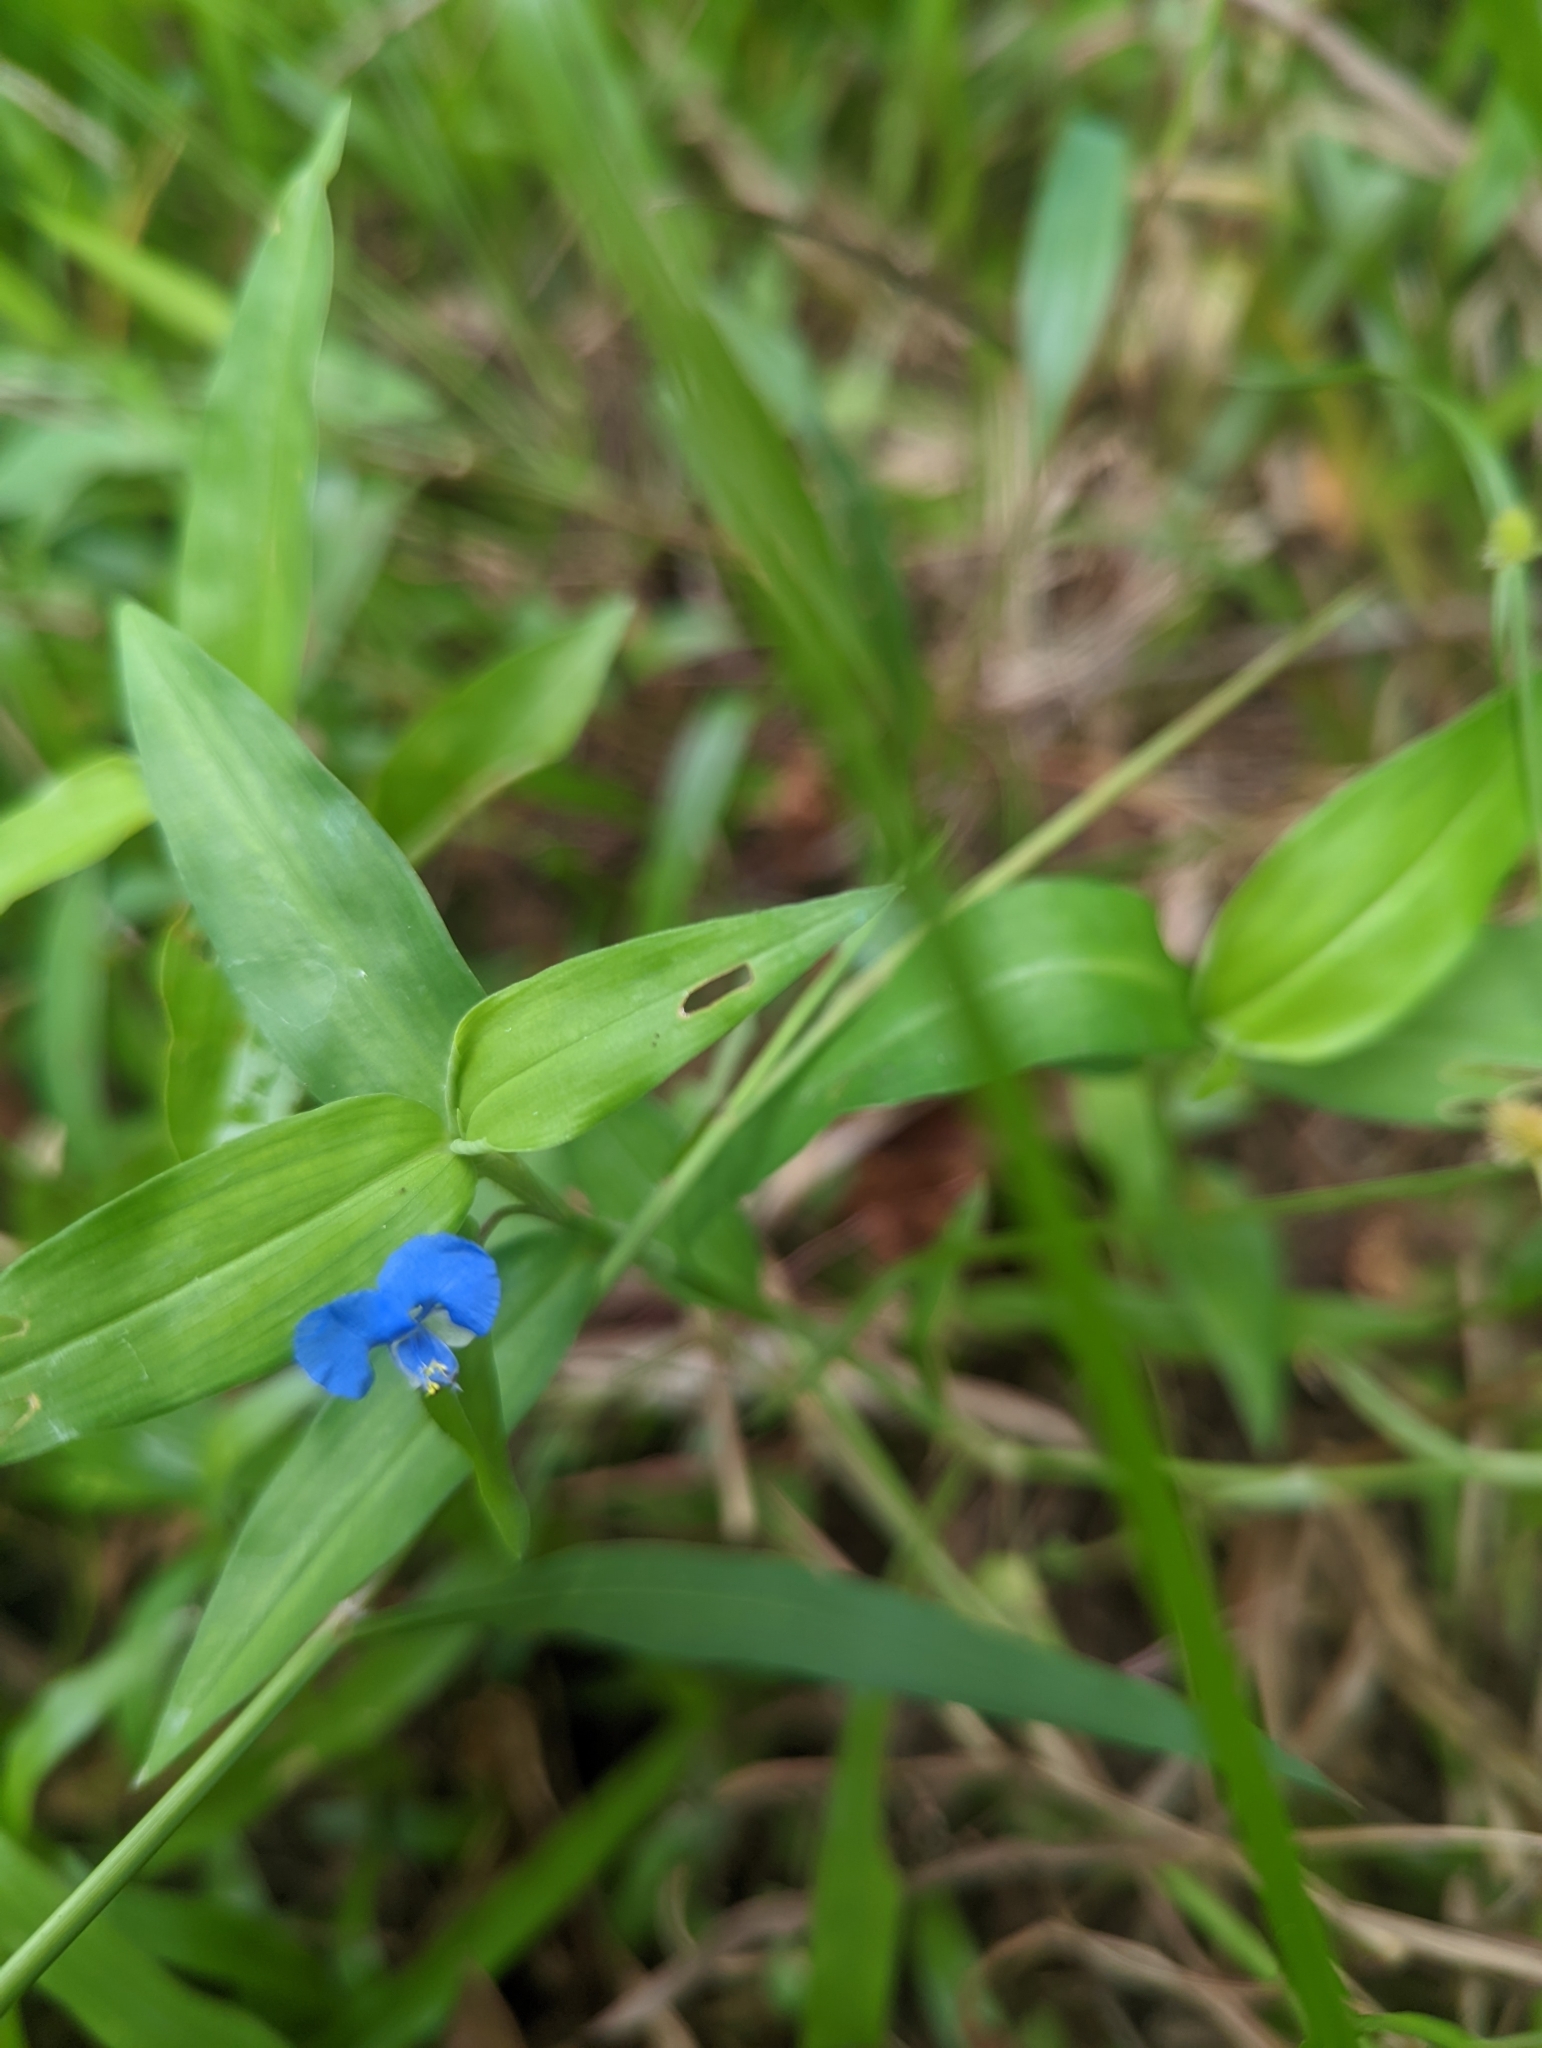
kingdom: Plantae
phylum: Tracheophyta
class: Liliopsida
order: Commelinales
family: Commelinaceae
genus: Commelina
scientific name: Commelina diffusa
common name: Climbing dayflower
